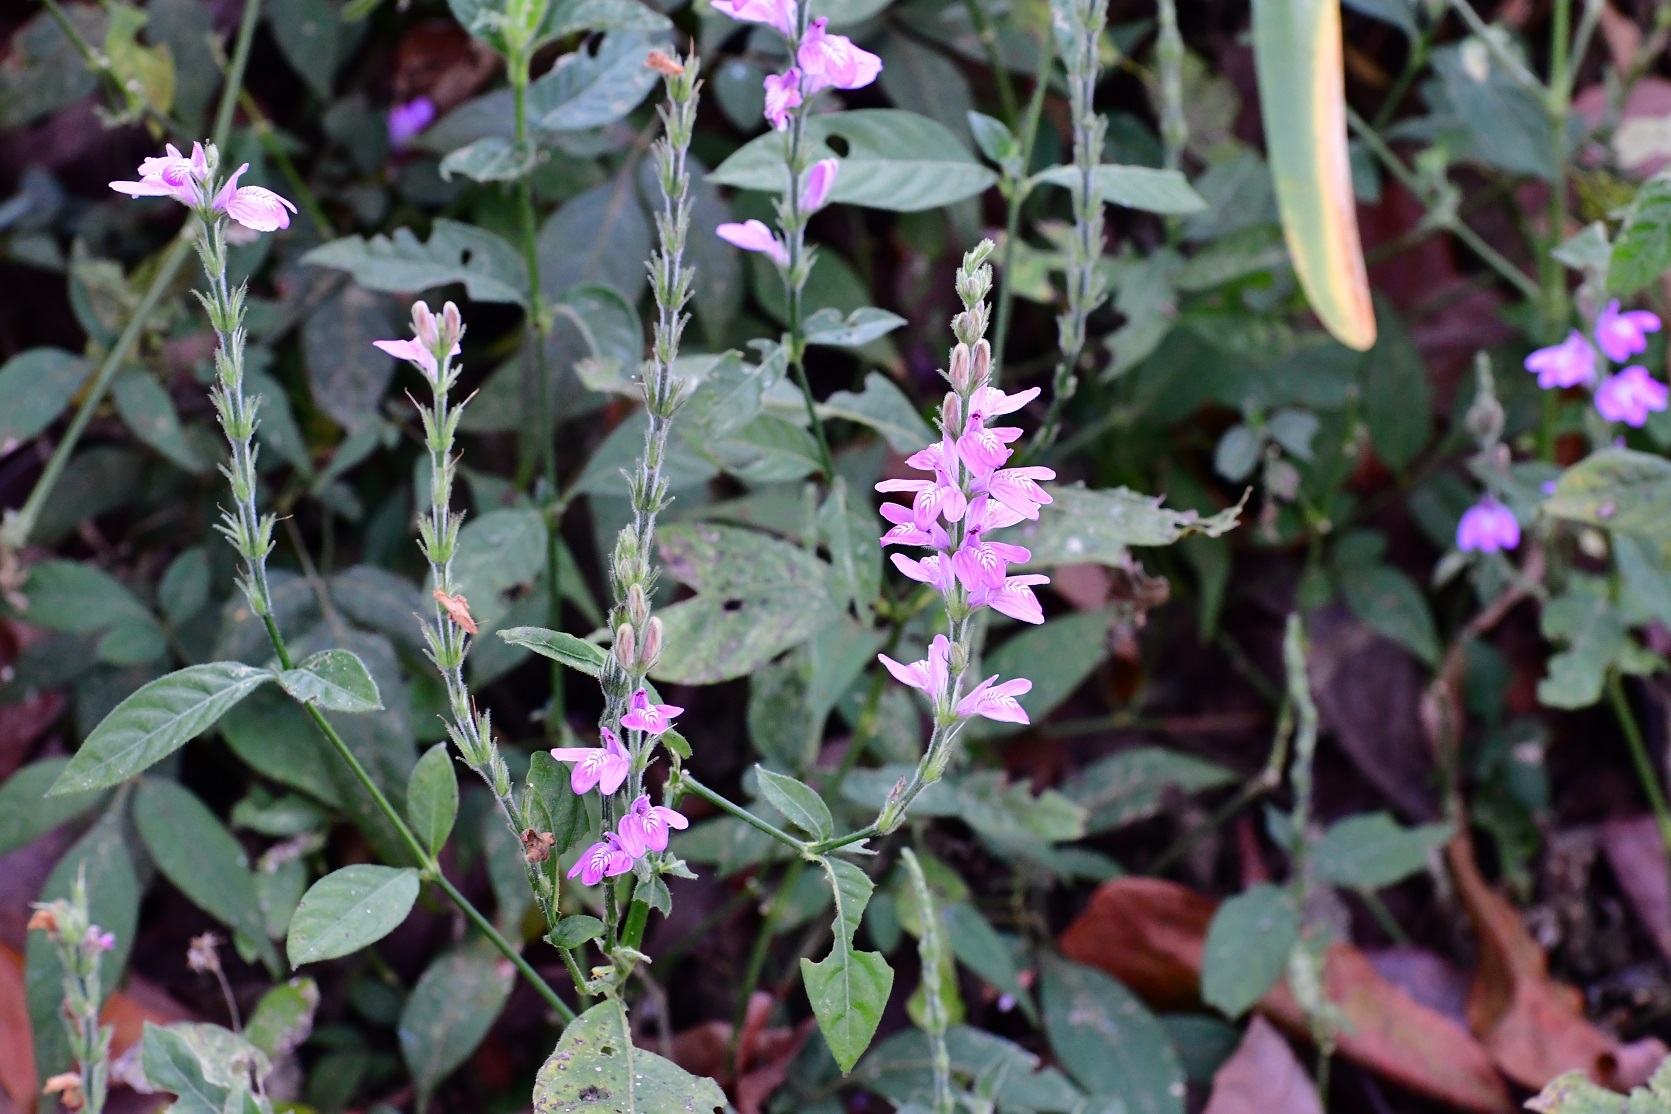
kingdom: Plantae
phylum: Tracheophyta
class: Magnoliopsida
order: Lamiales
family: Acanthaceae
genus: Dianthera
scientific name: Dianthera breviflora
